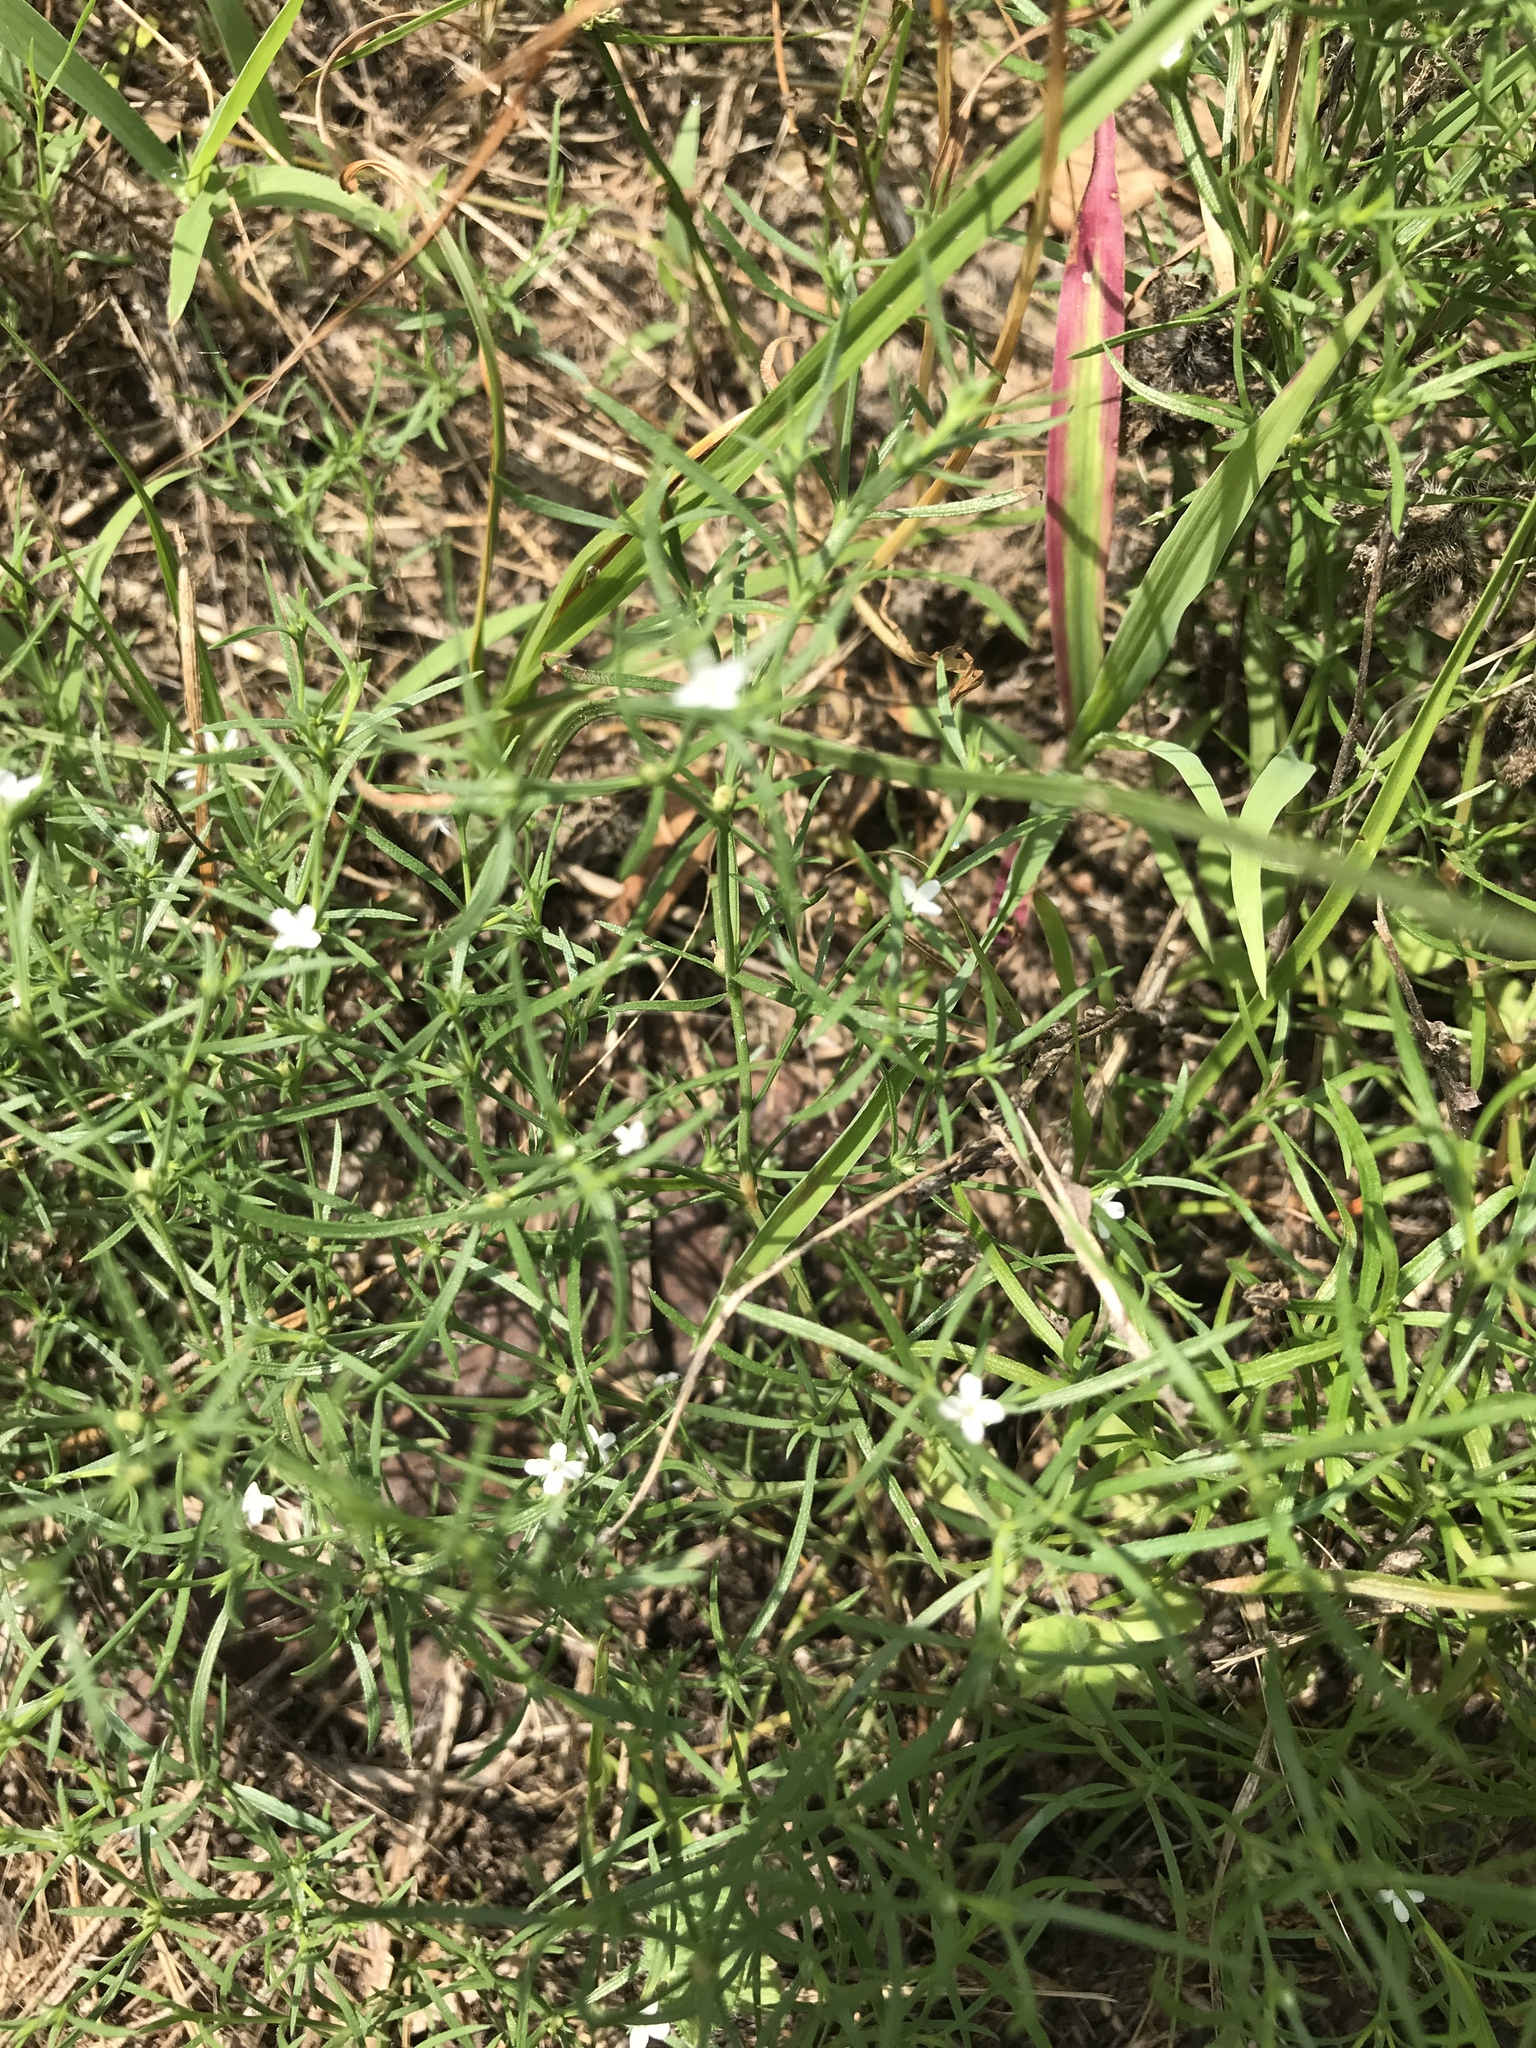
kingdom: Plantae
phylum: Tracheophyta
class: Magnoliopsida
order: Lamiales
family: Tetrachondraceae
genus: Polypremum
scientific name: Polypremum procumbens
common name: Juniper-leaf
